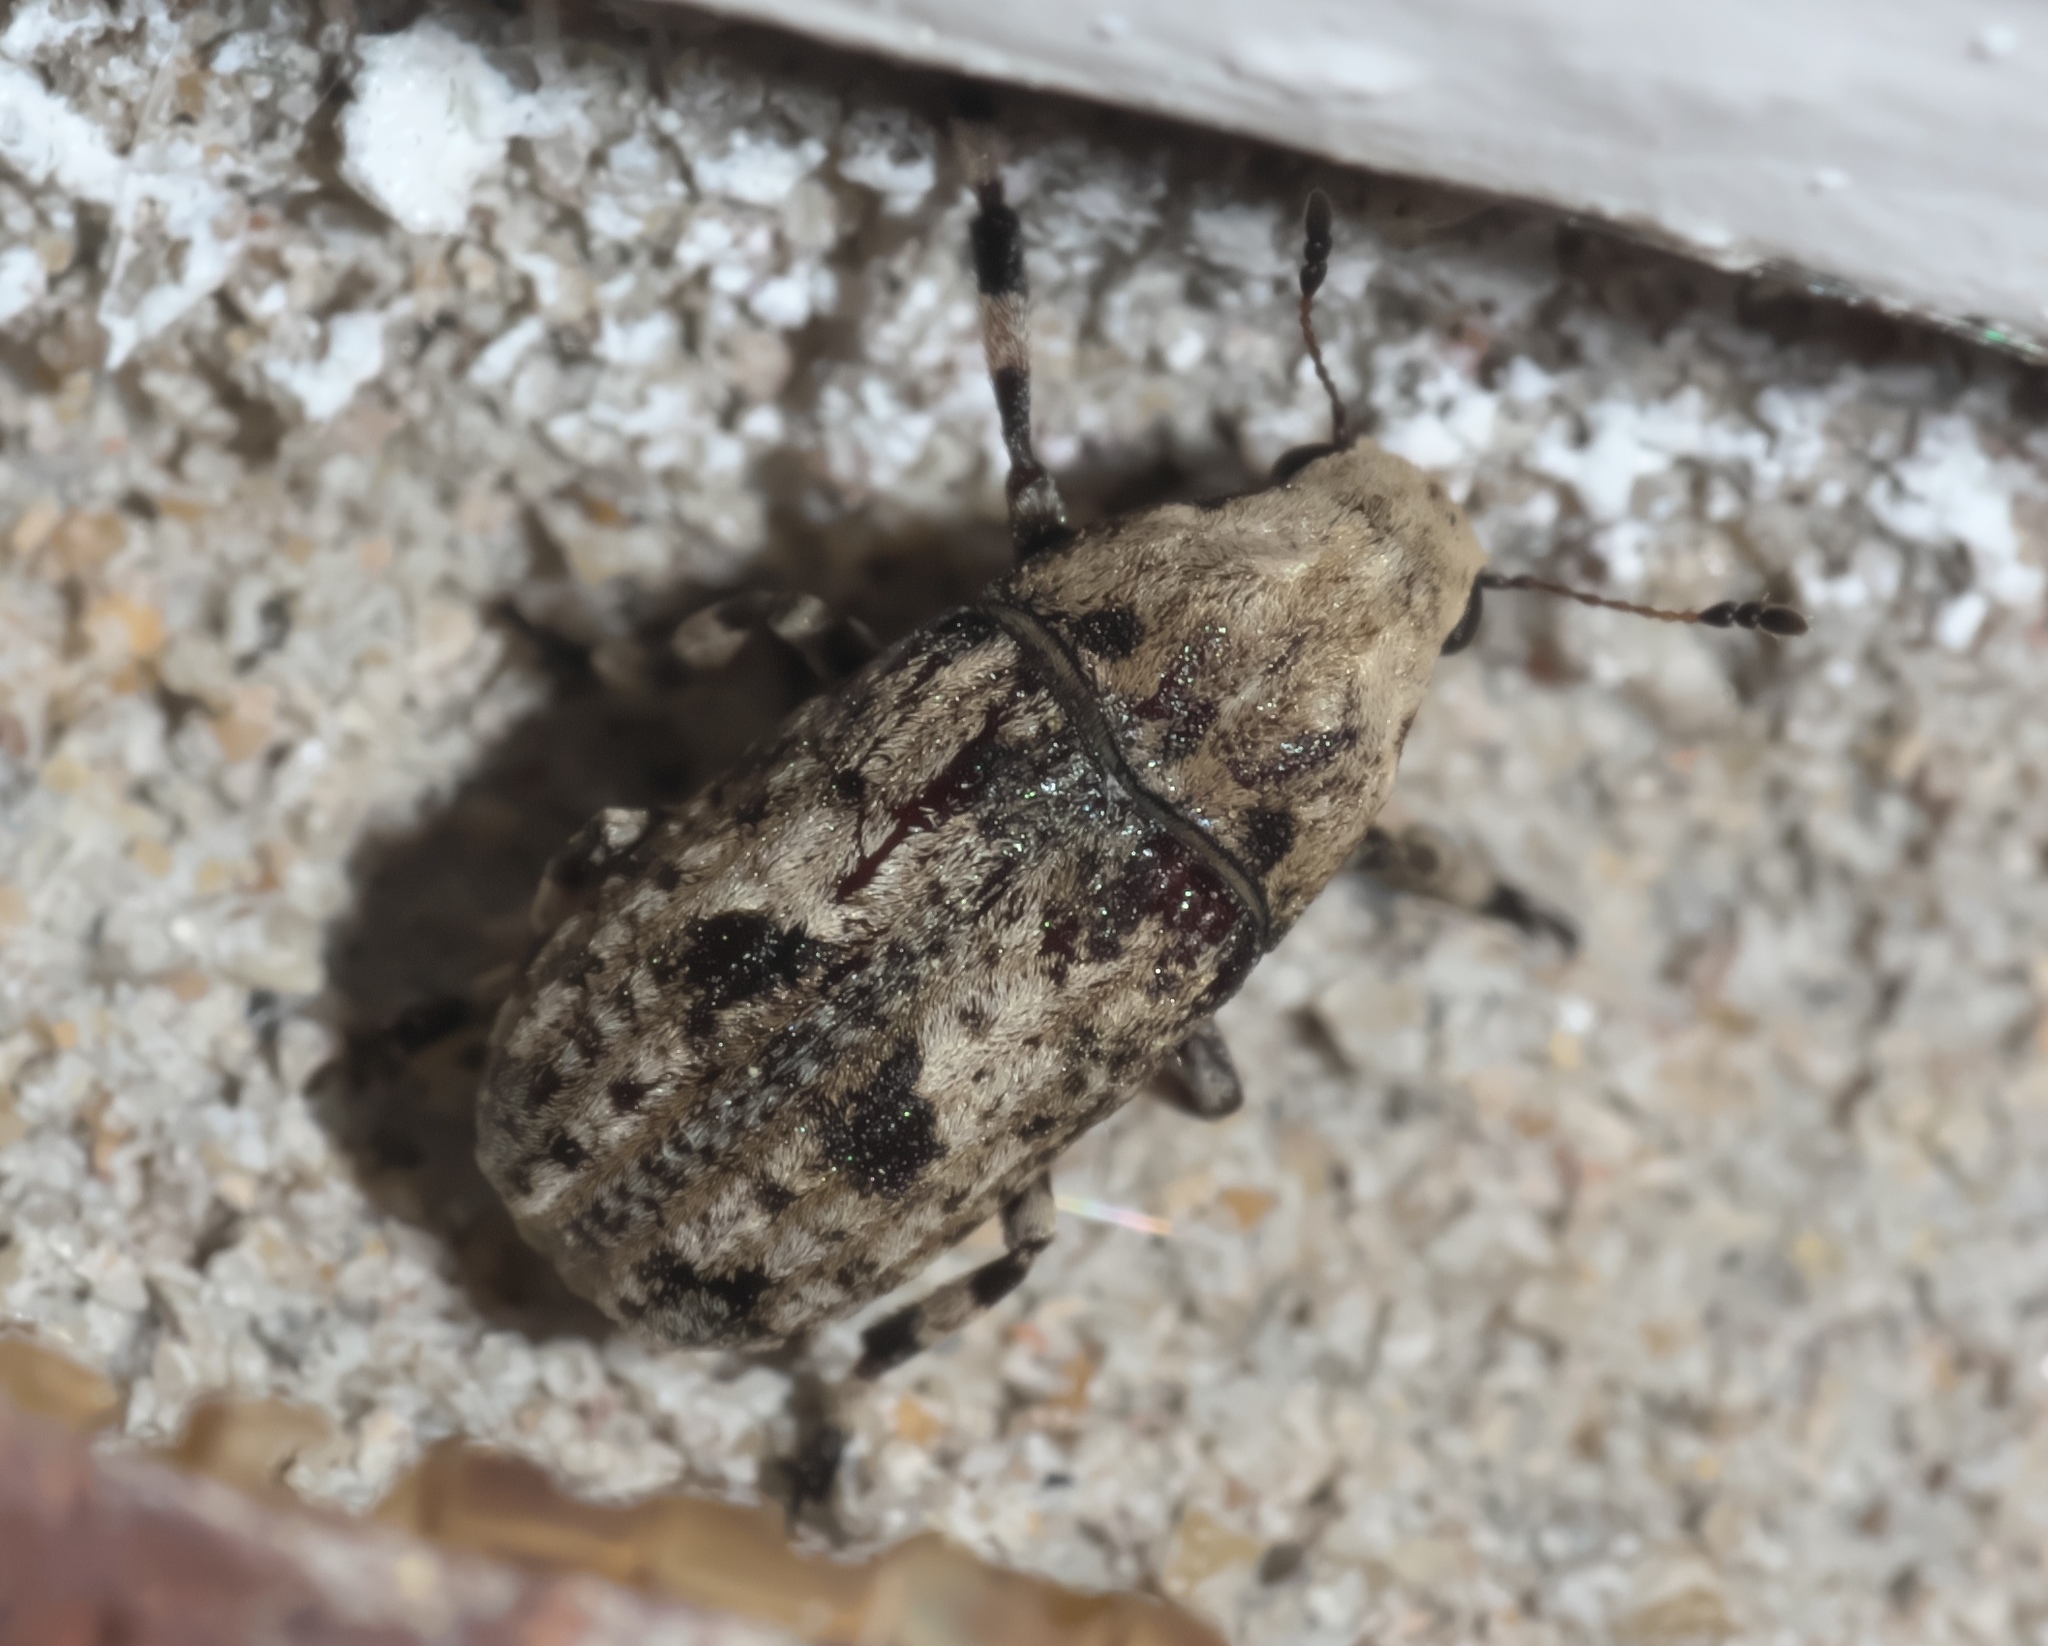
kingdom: Animalia
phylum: Arthropoda
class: Insecta
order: Coleoptera
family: Anthribidae
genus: Euparius
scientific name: Euparius marmoreus
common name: Marbled fungus weevil
